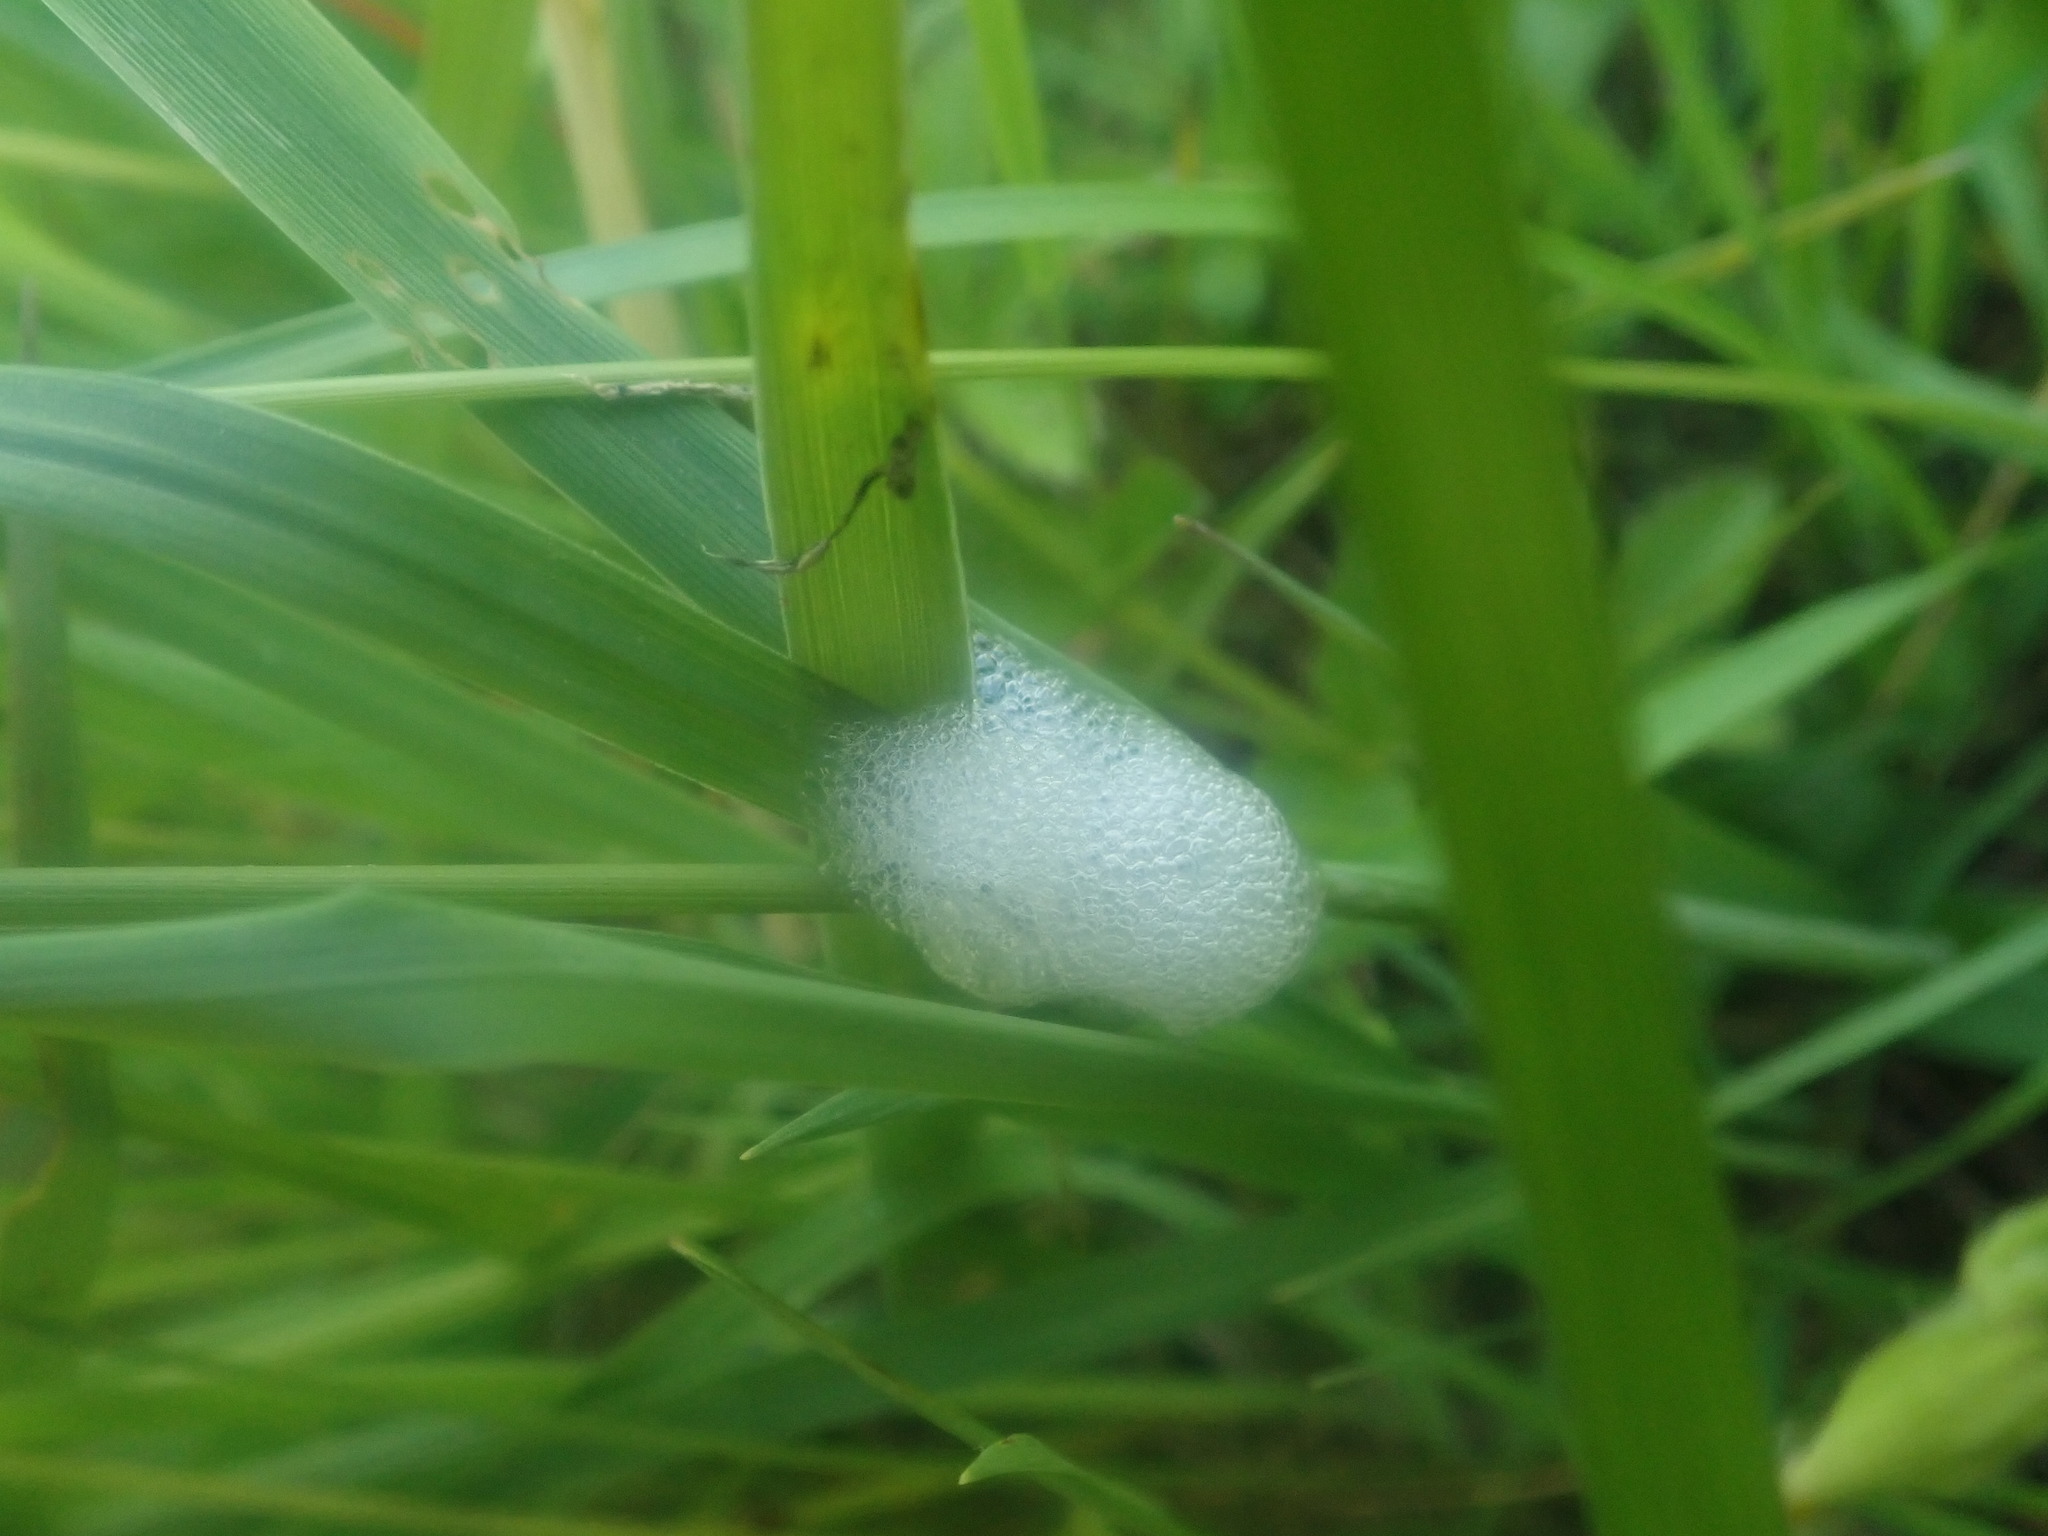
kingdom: Animalia
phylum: Arthropoda
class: Insecta
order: Hemiptera
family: Aphrophoridae
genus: Philaenus
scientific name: Philaenus spumarius
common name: Meadow spittlebug
